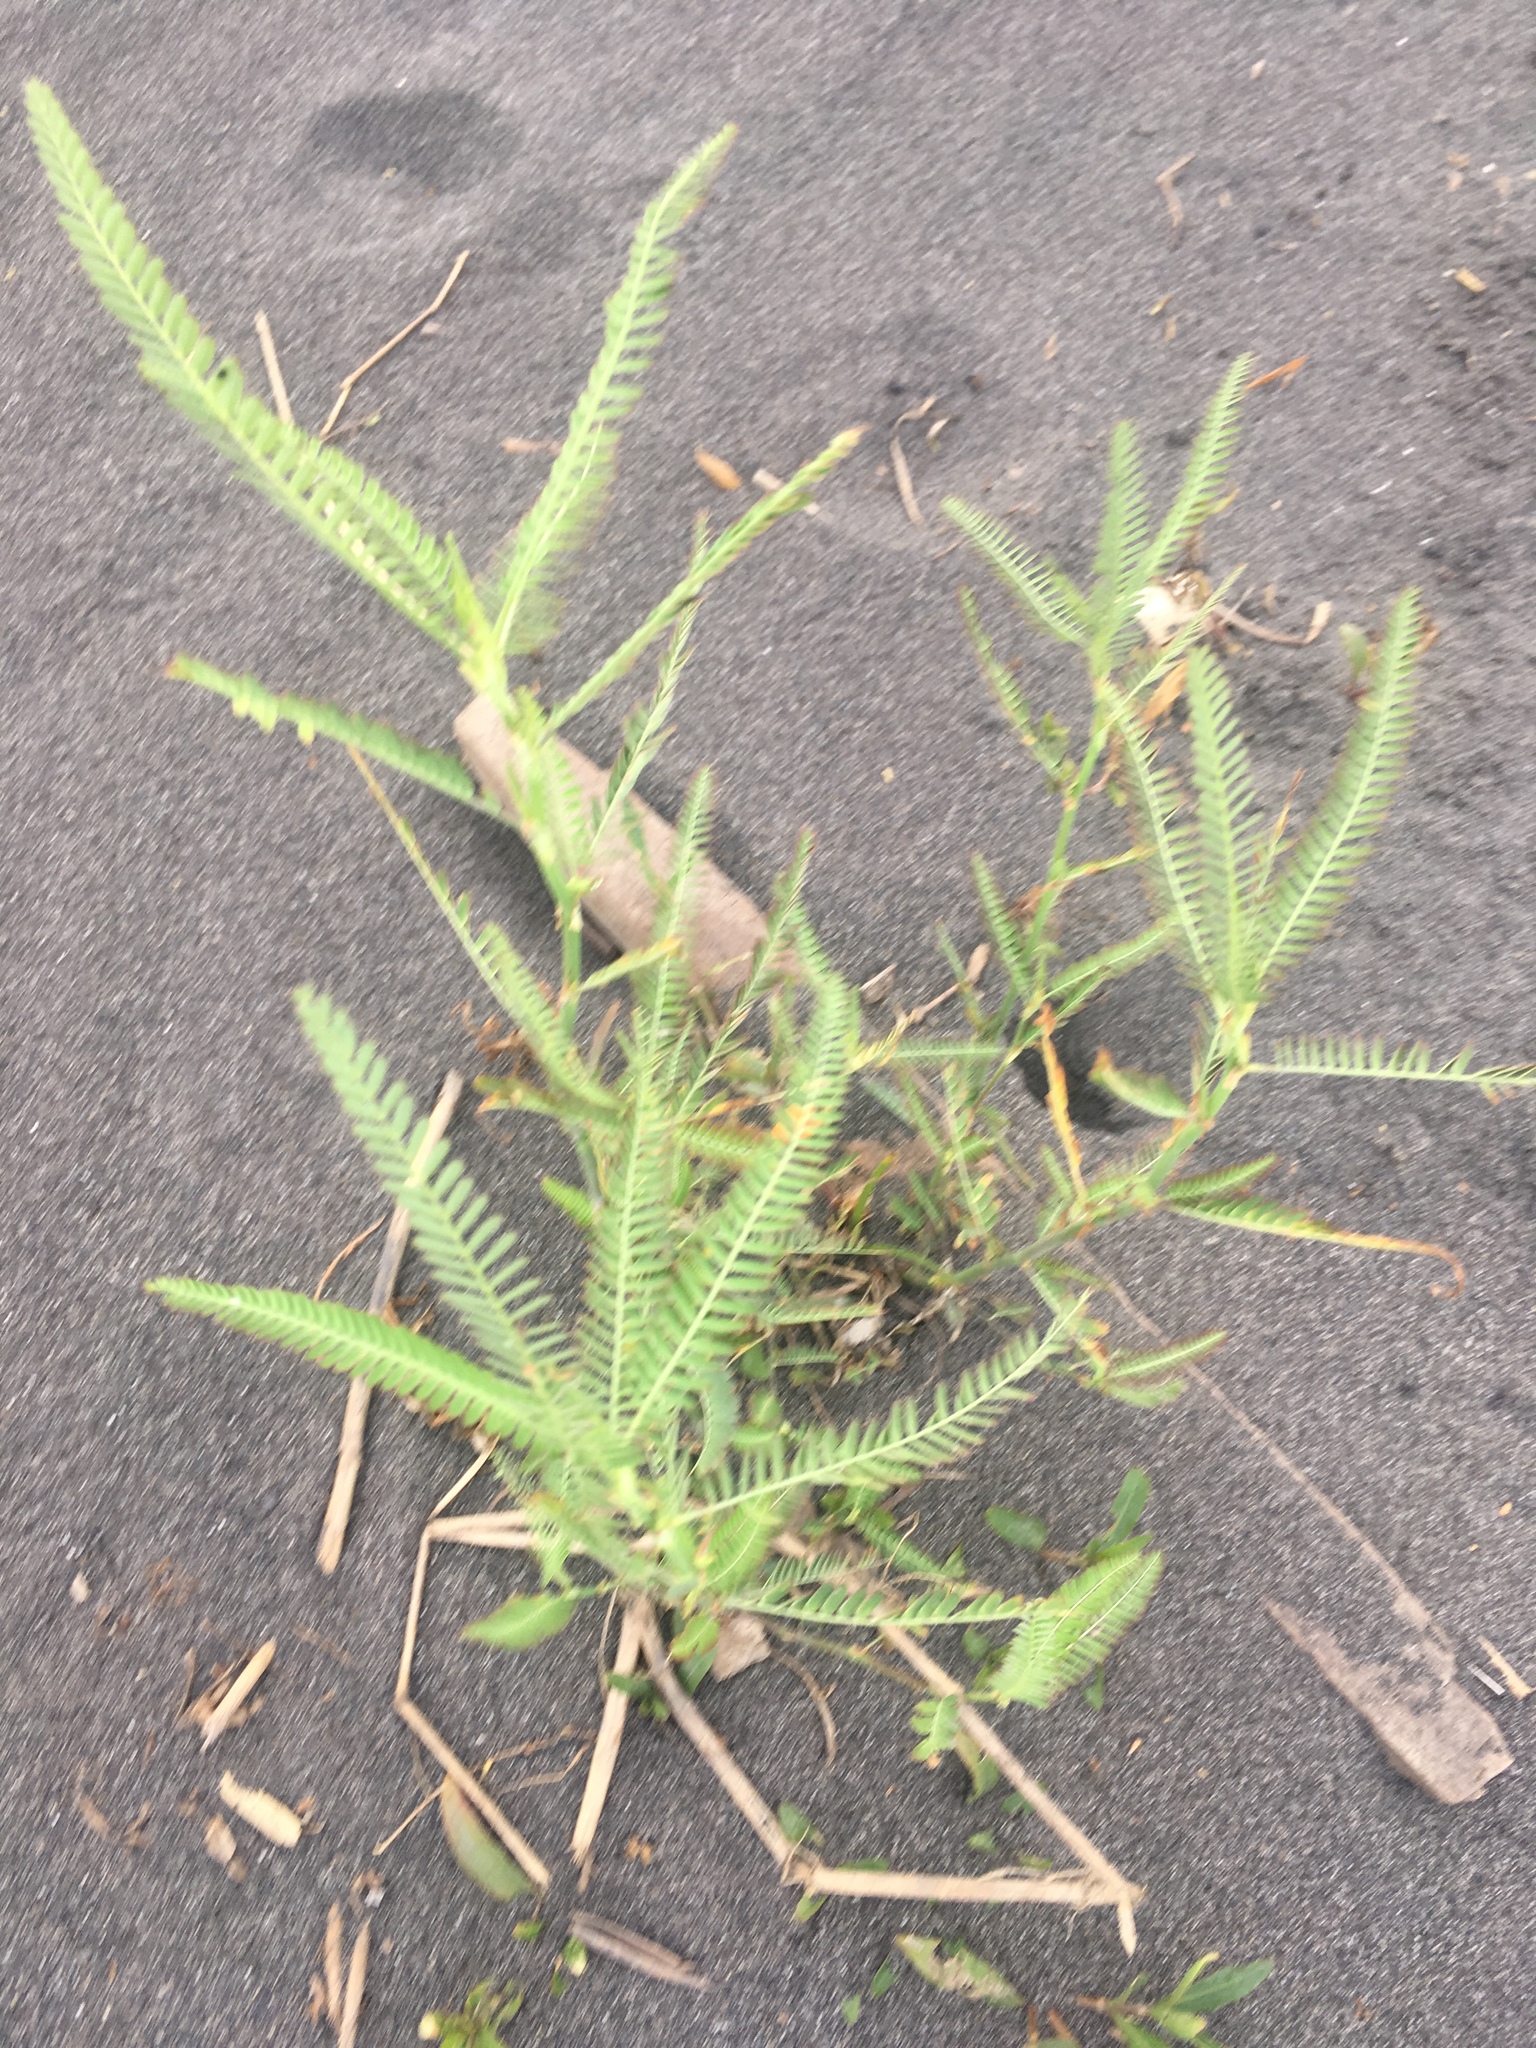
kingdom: Plantae
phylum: Tracheophyta
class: Magnoliopsida
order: Fabales
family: Fabaceae
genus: Sesbania
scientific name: Sesbania cannabina
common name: Canicha
